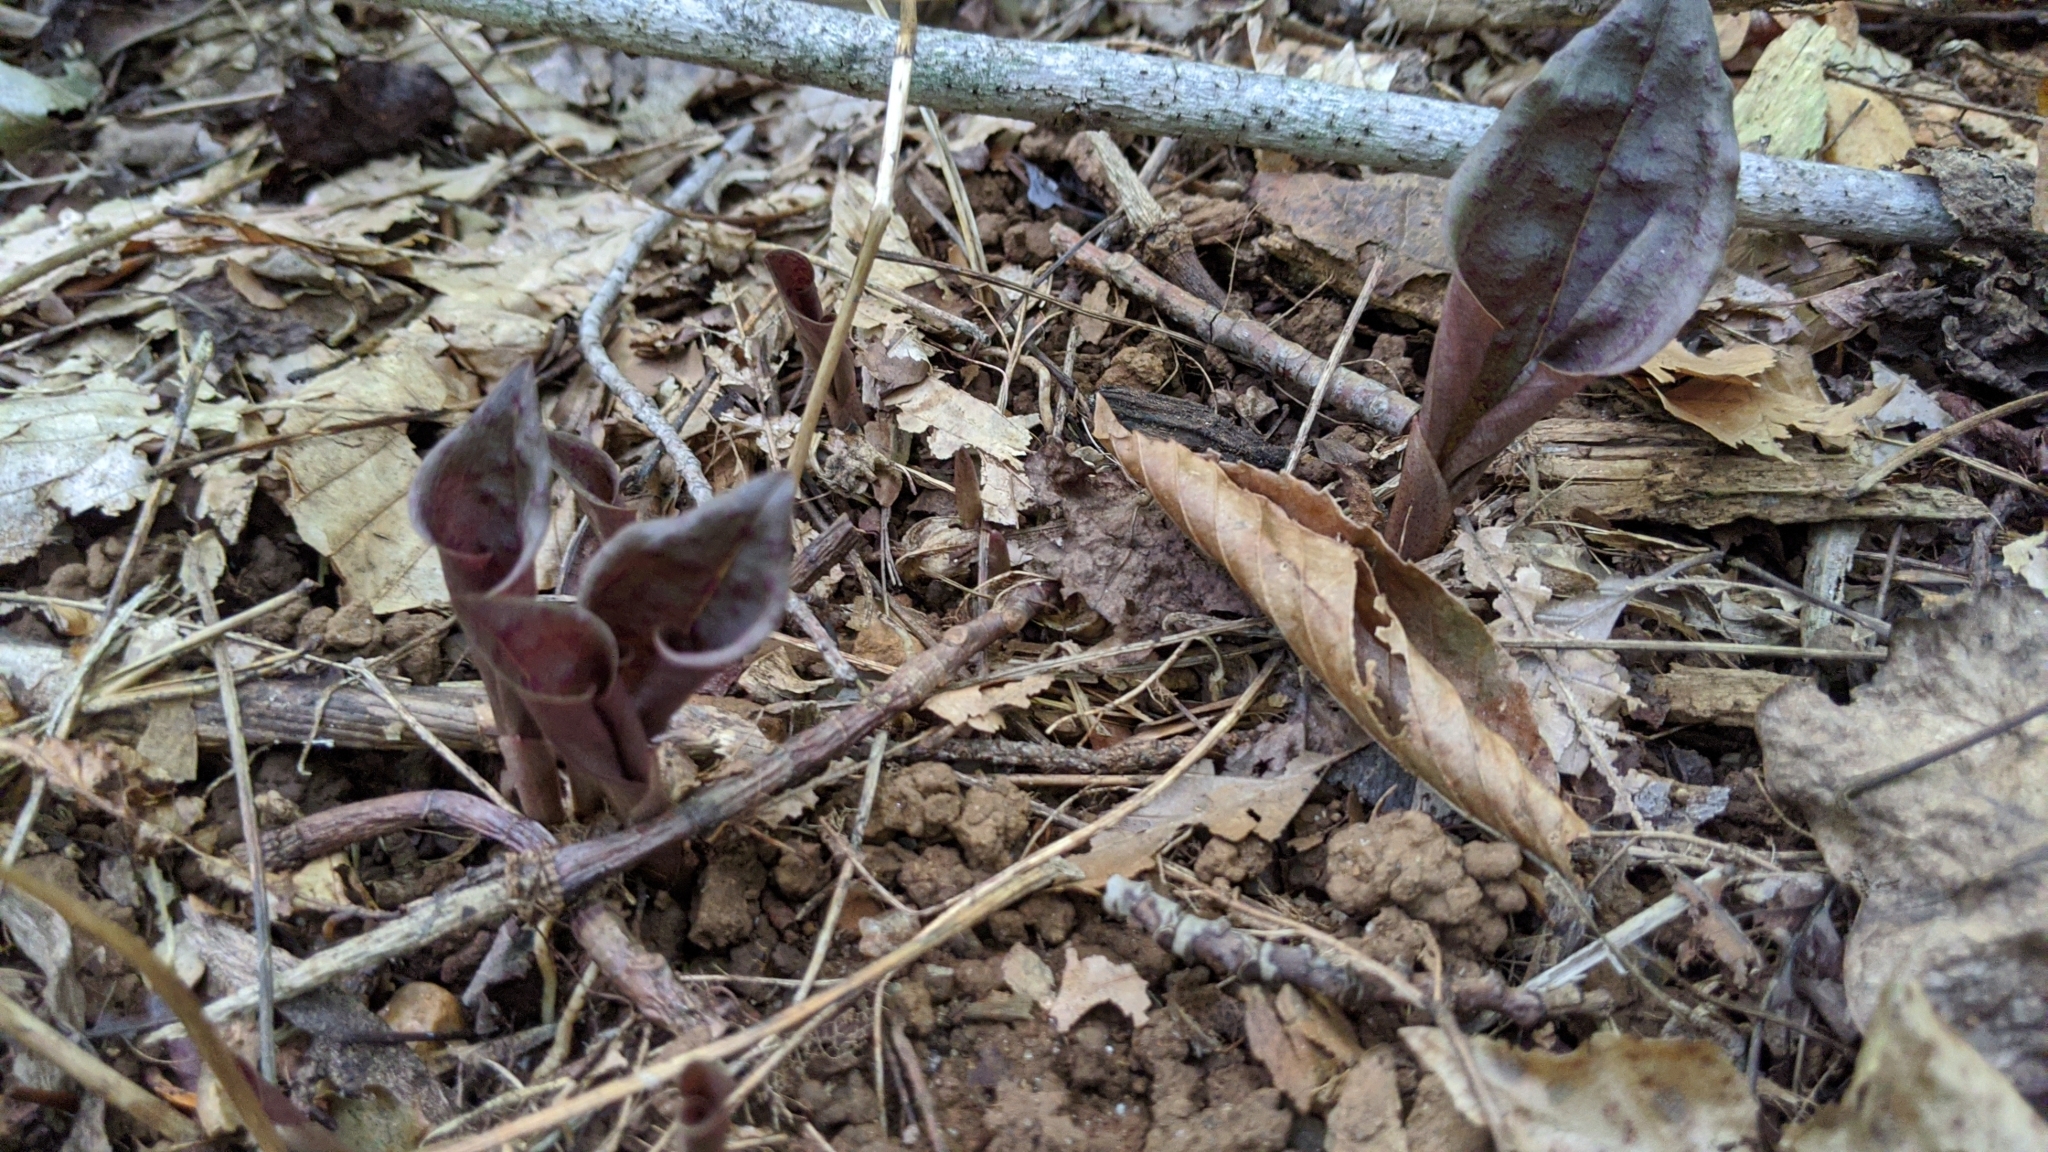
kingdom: Plantae
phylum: Tracheophyta
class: Liliopsida
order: Asparagales
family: Orchidaceae
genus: Tipularia
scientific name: Tipularia discolor
